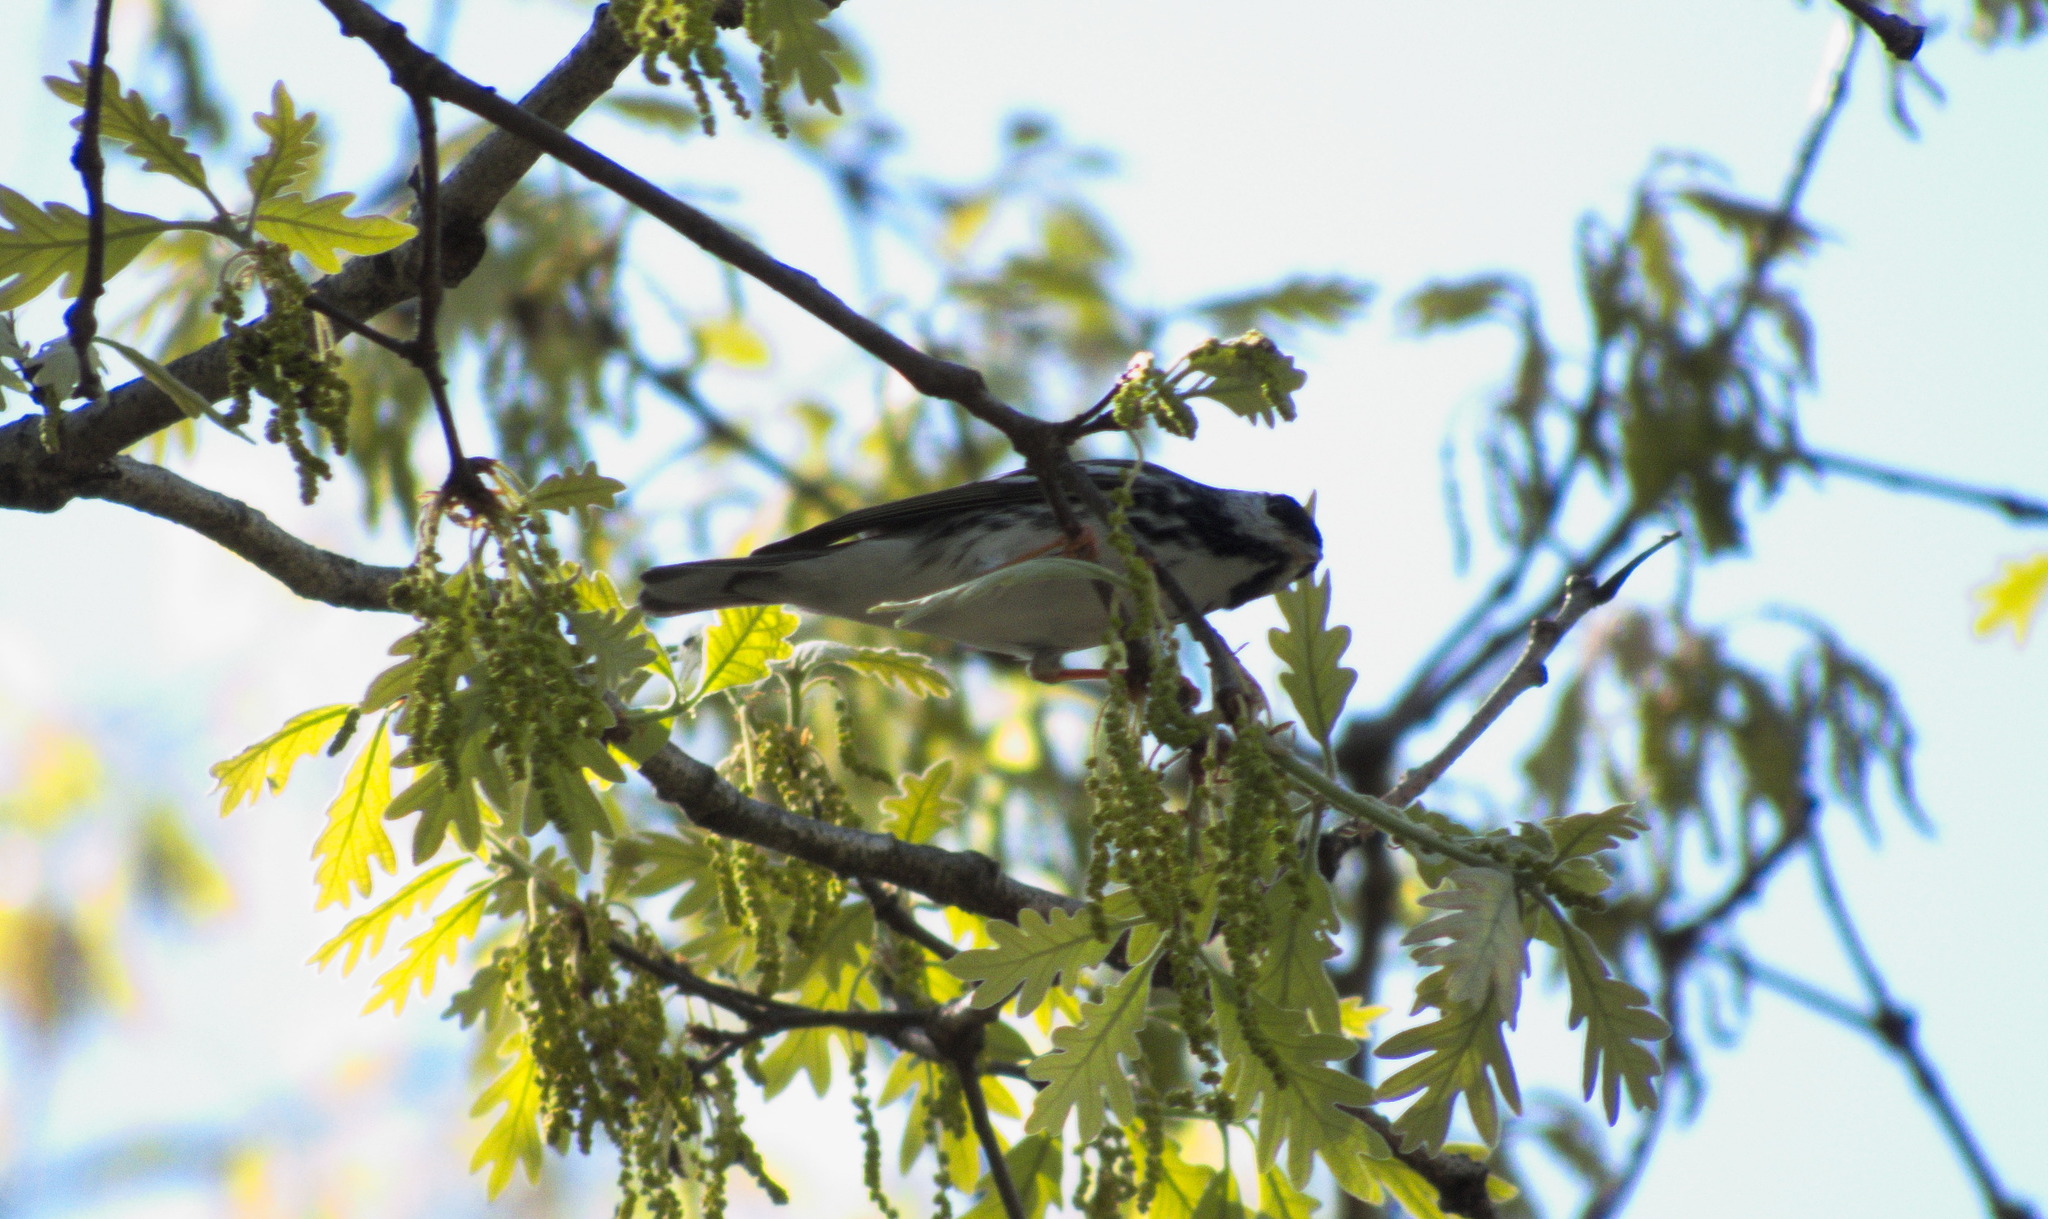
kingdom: Animalia
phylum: Chordata
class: Aves
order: Passeriformes
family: Parulidae
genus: Setophaga
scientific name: Setophaga striata
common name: Blackpoll warbler
